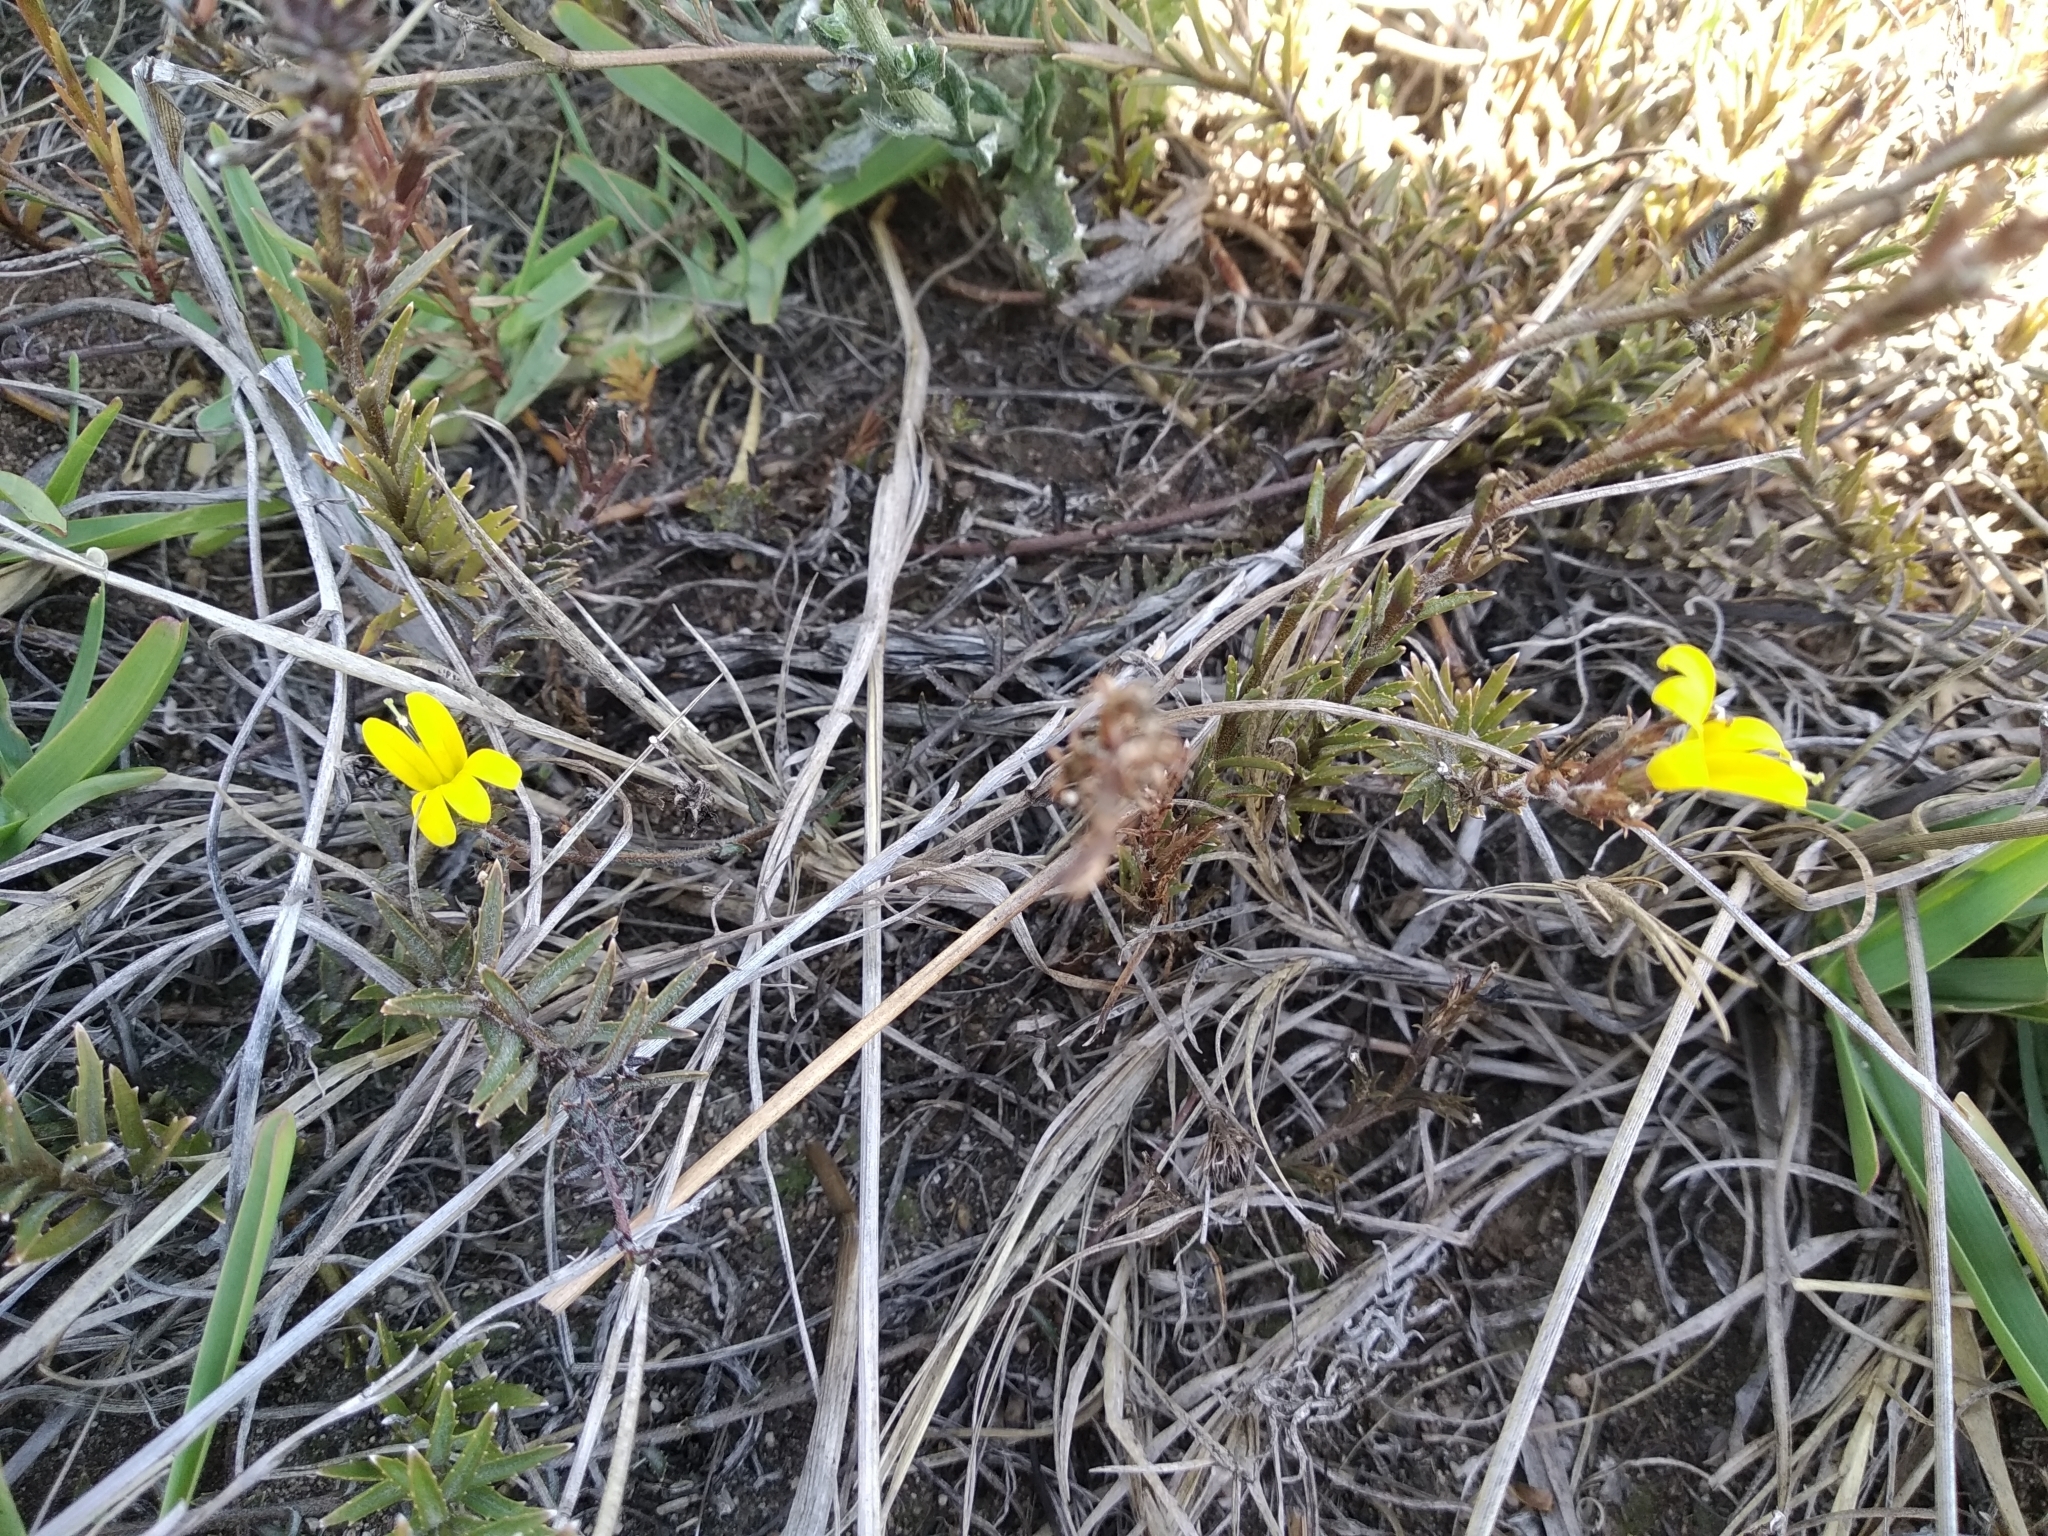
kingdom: Plantae
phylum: Tracheophyta
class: Magnoliopsida
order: Asterales
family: Campanulaceae
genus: Monopsis
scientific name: Monopsis lutea
